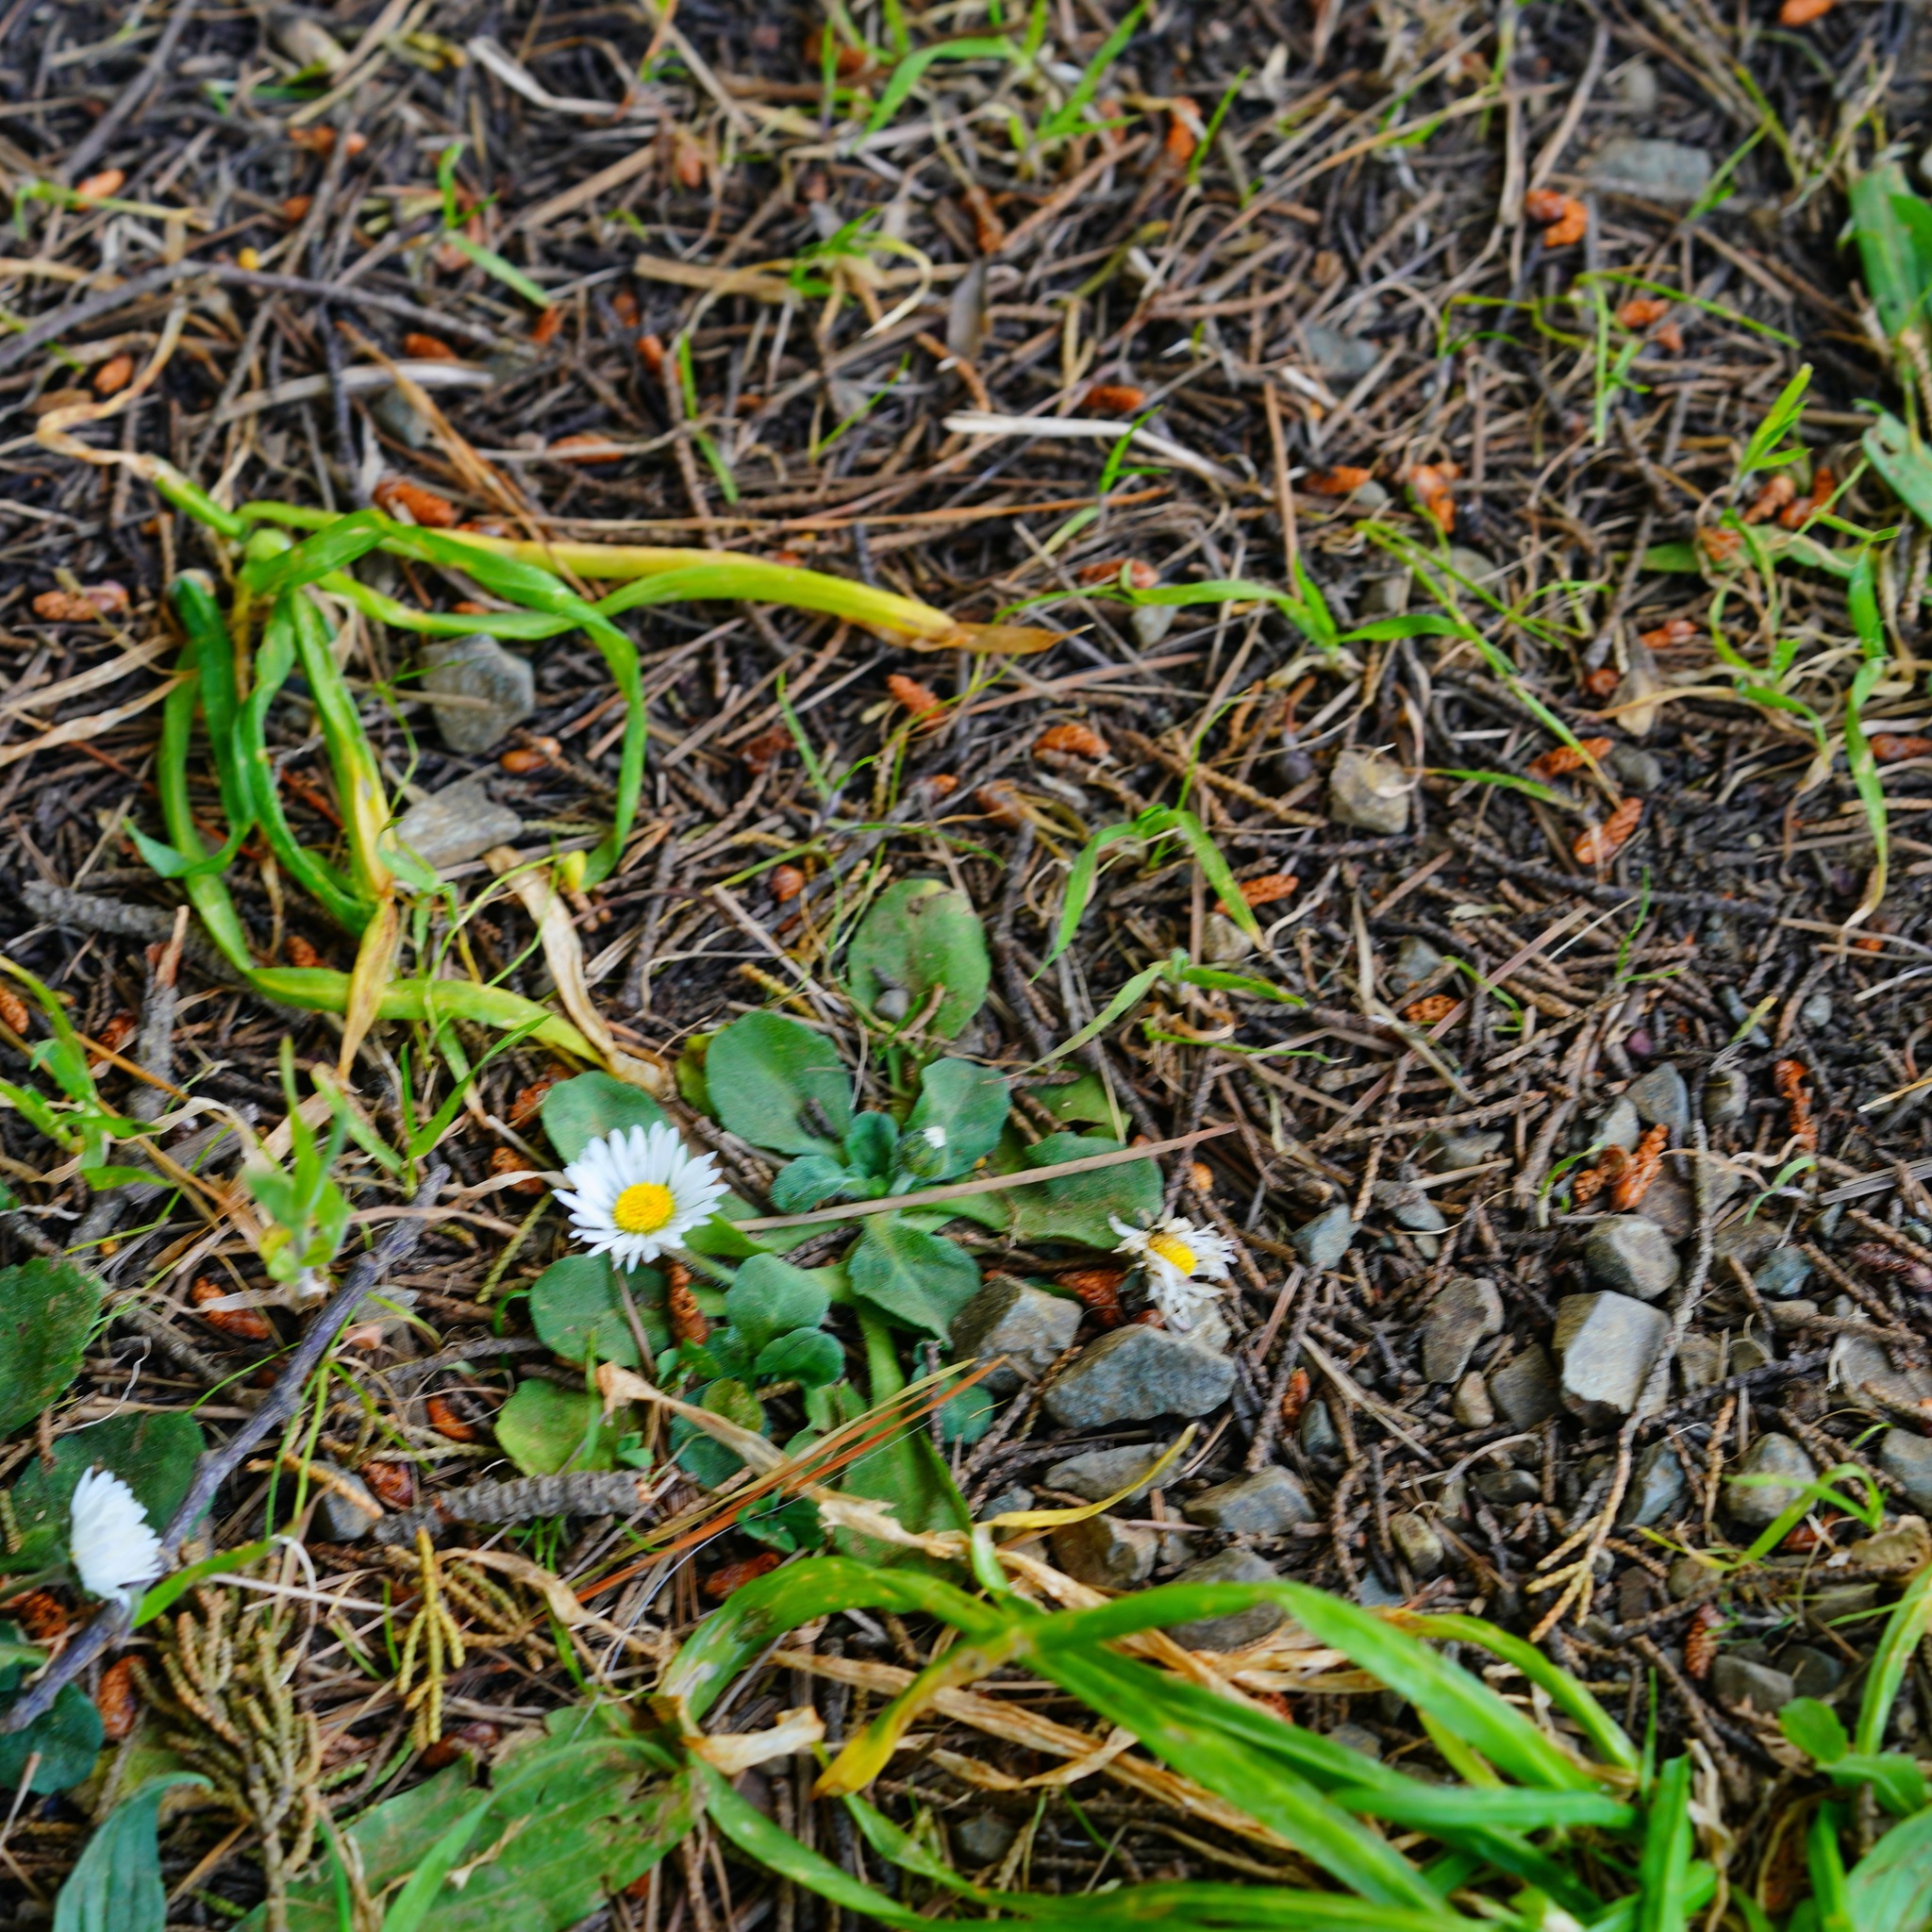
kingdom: Plantae
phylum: Tracheophyta
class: Magnoliopsida
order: Asterales
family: Asteraceae
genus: Bellis
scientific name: Bellis perennis
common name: Lawndaisy
